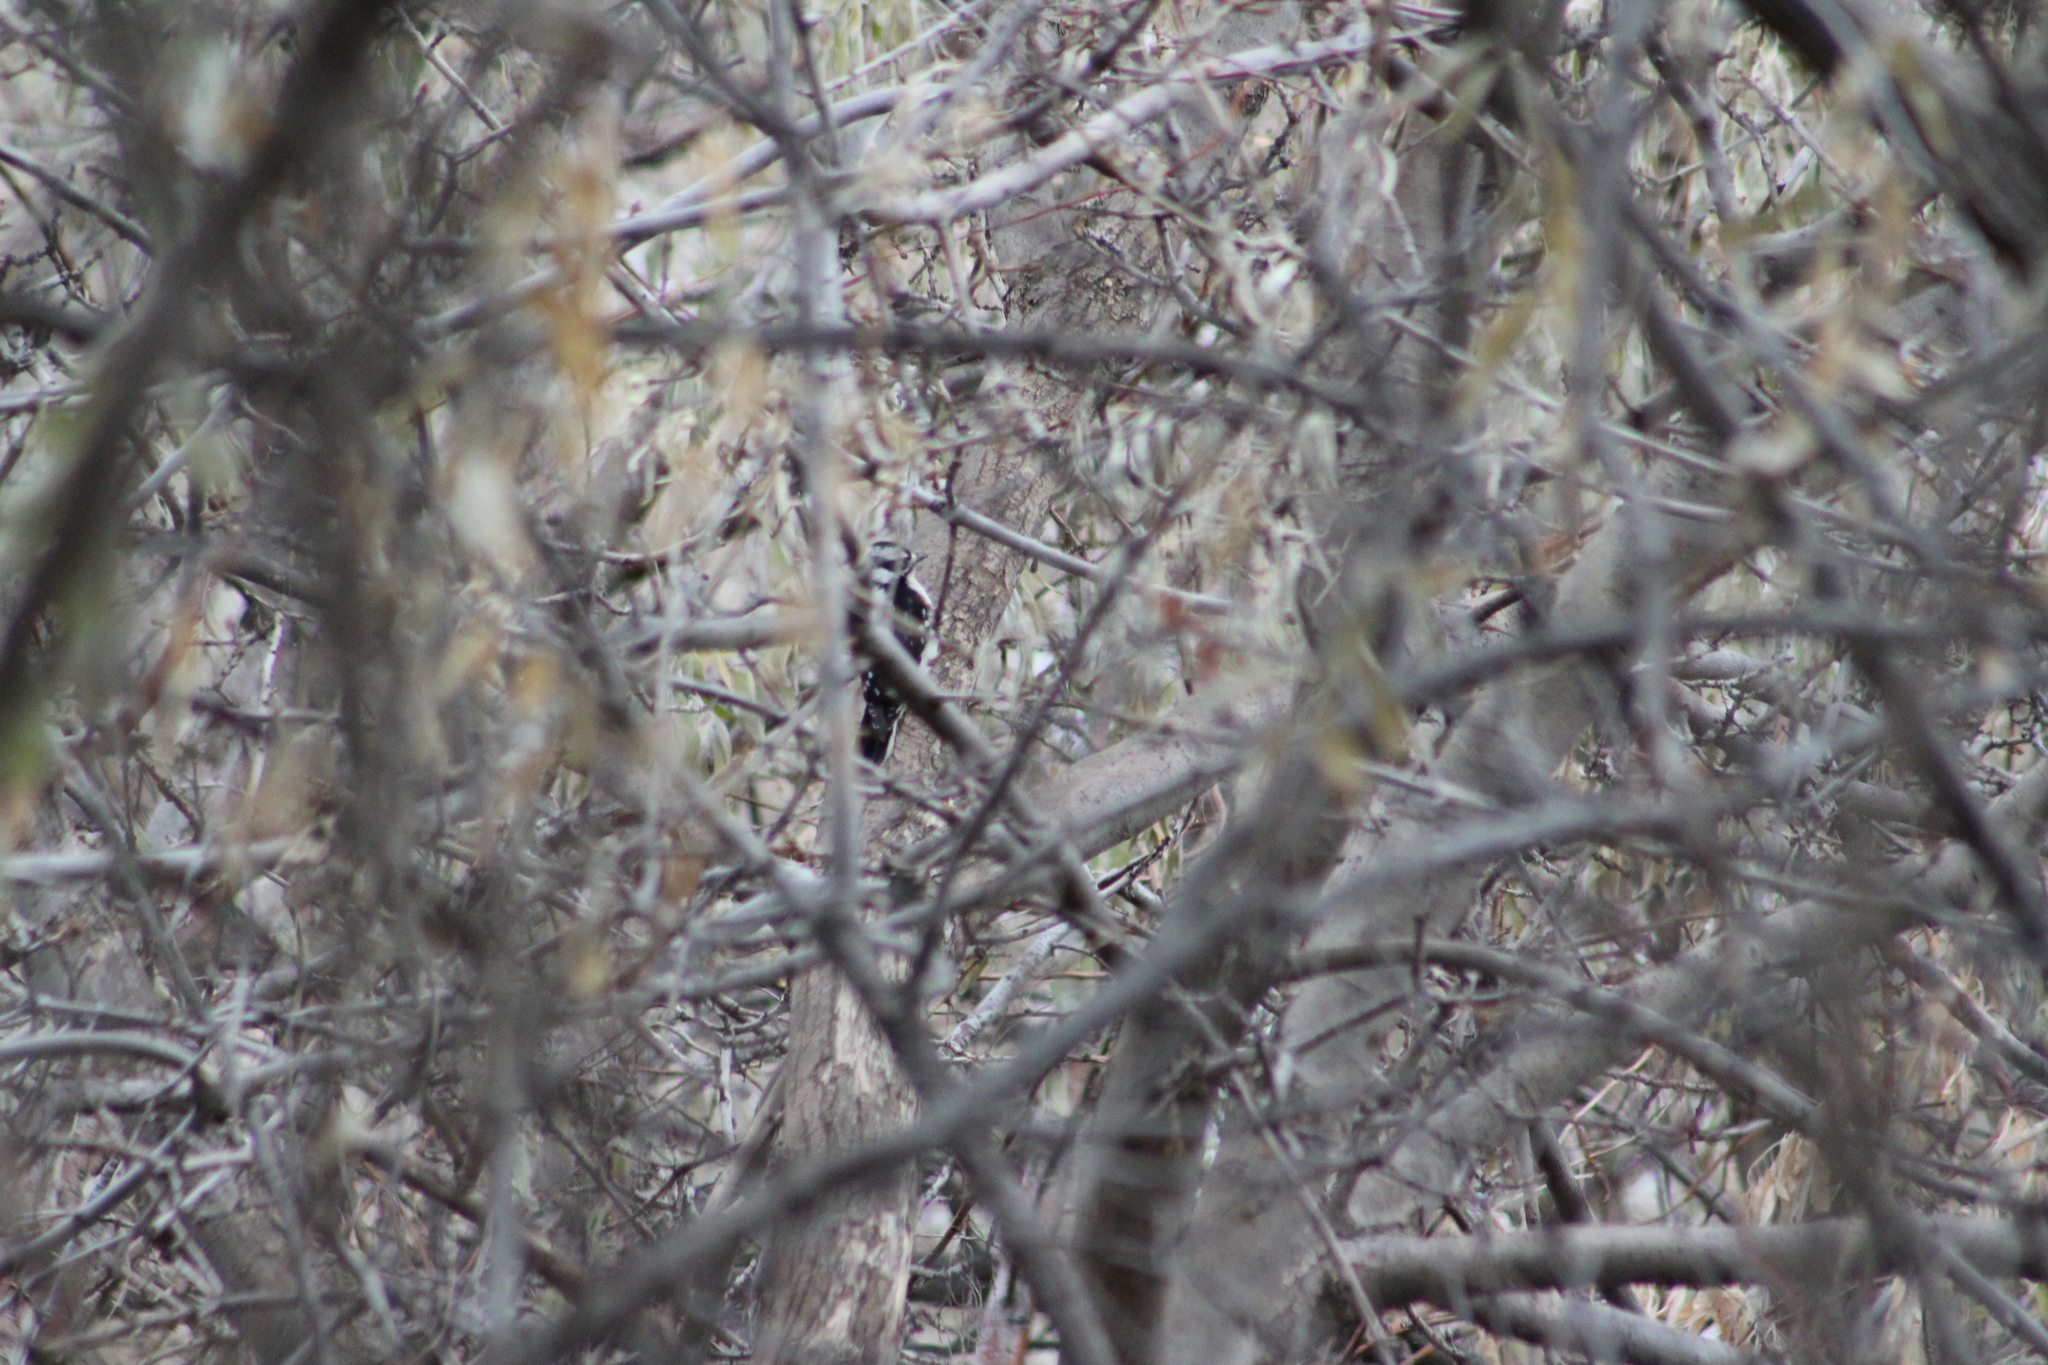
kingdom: Animalia
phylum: Chordata
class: Aves
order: Piciformes
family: Picidae
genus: Dryobates
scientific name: Dryobates pubescens
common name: Downy woodpecker
